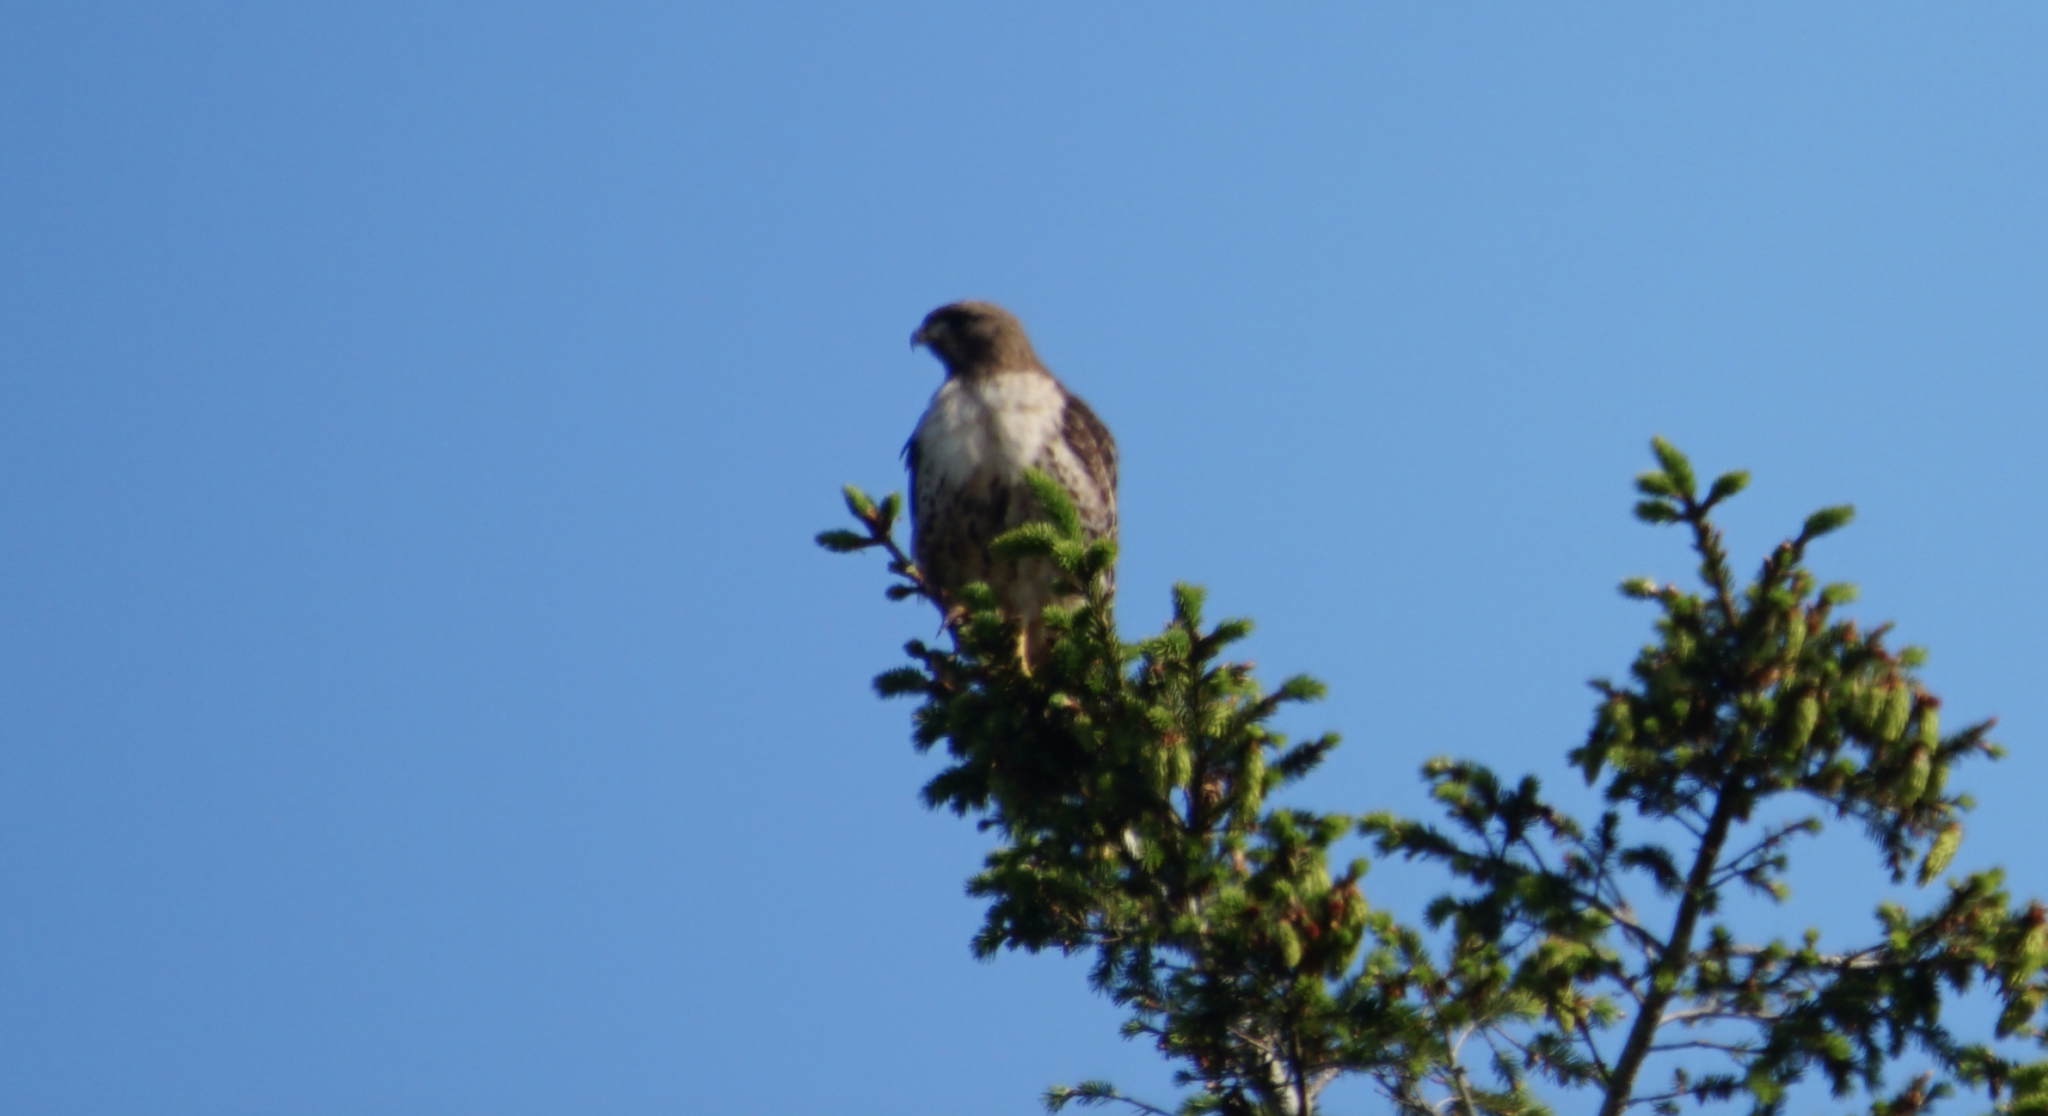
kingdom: Animalia
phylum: Chordata
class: Aves
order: Accipitriformes
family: Accipitridae
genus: Buteo
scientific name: Buteo jamaicensis
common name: Red-tailed hawk
